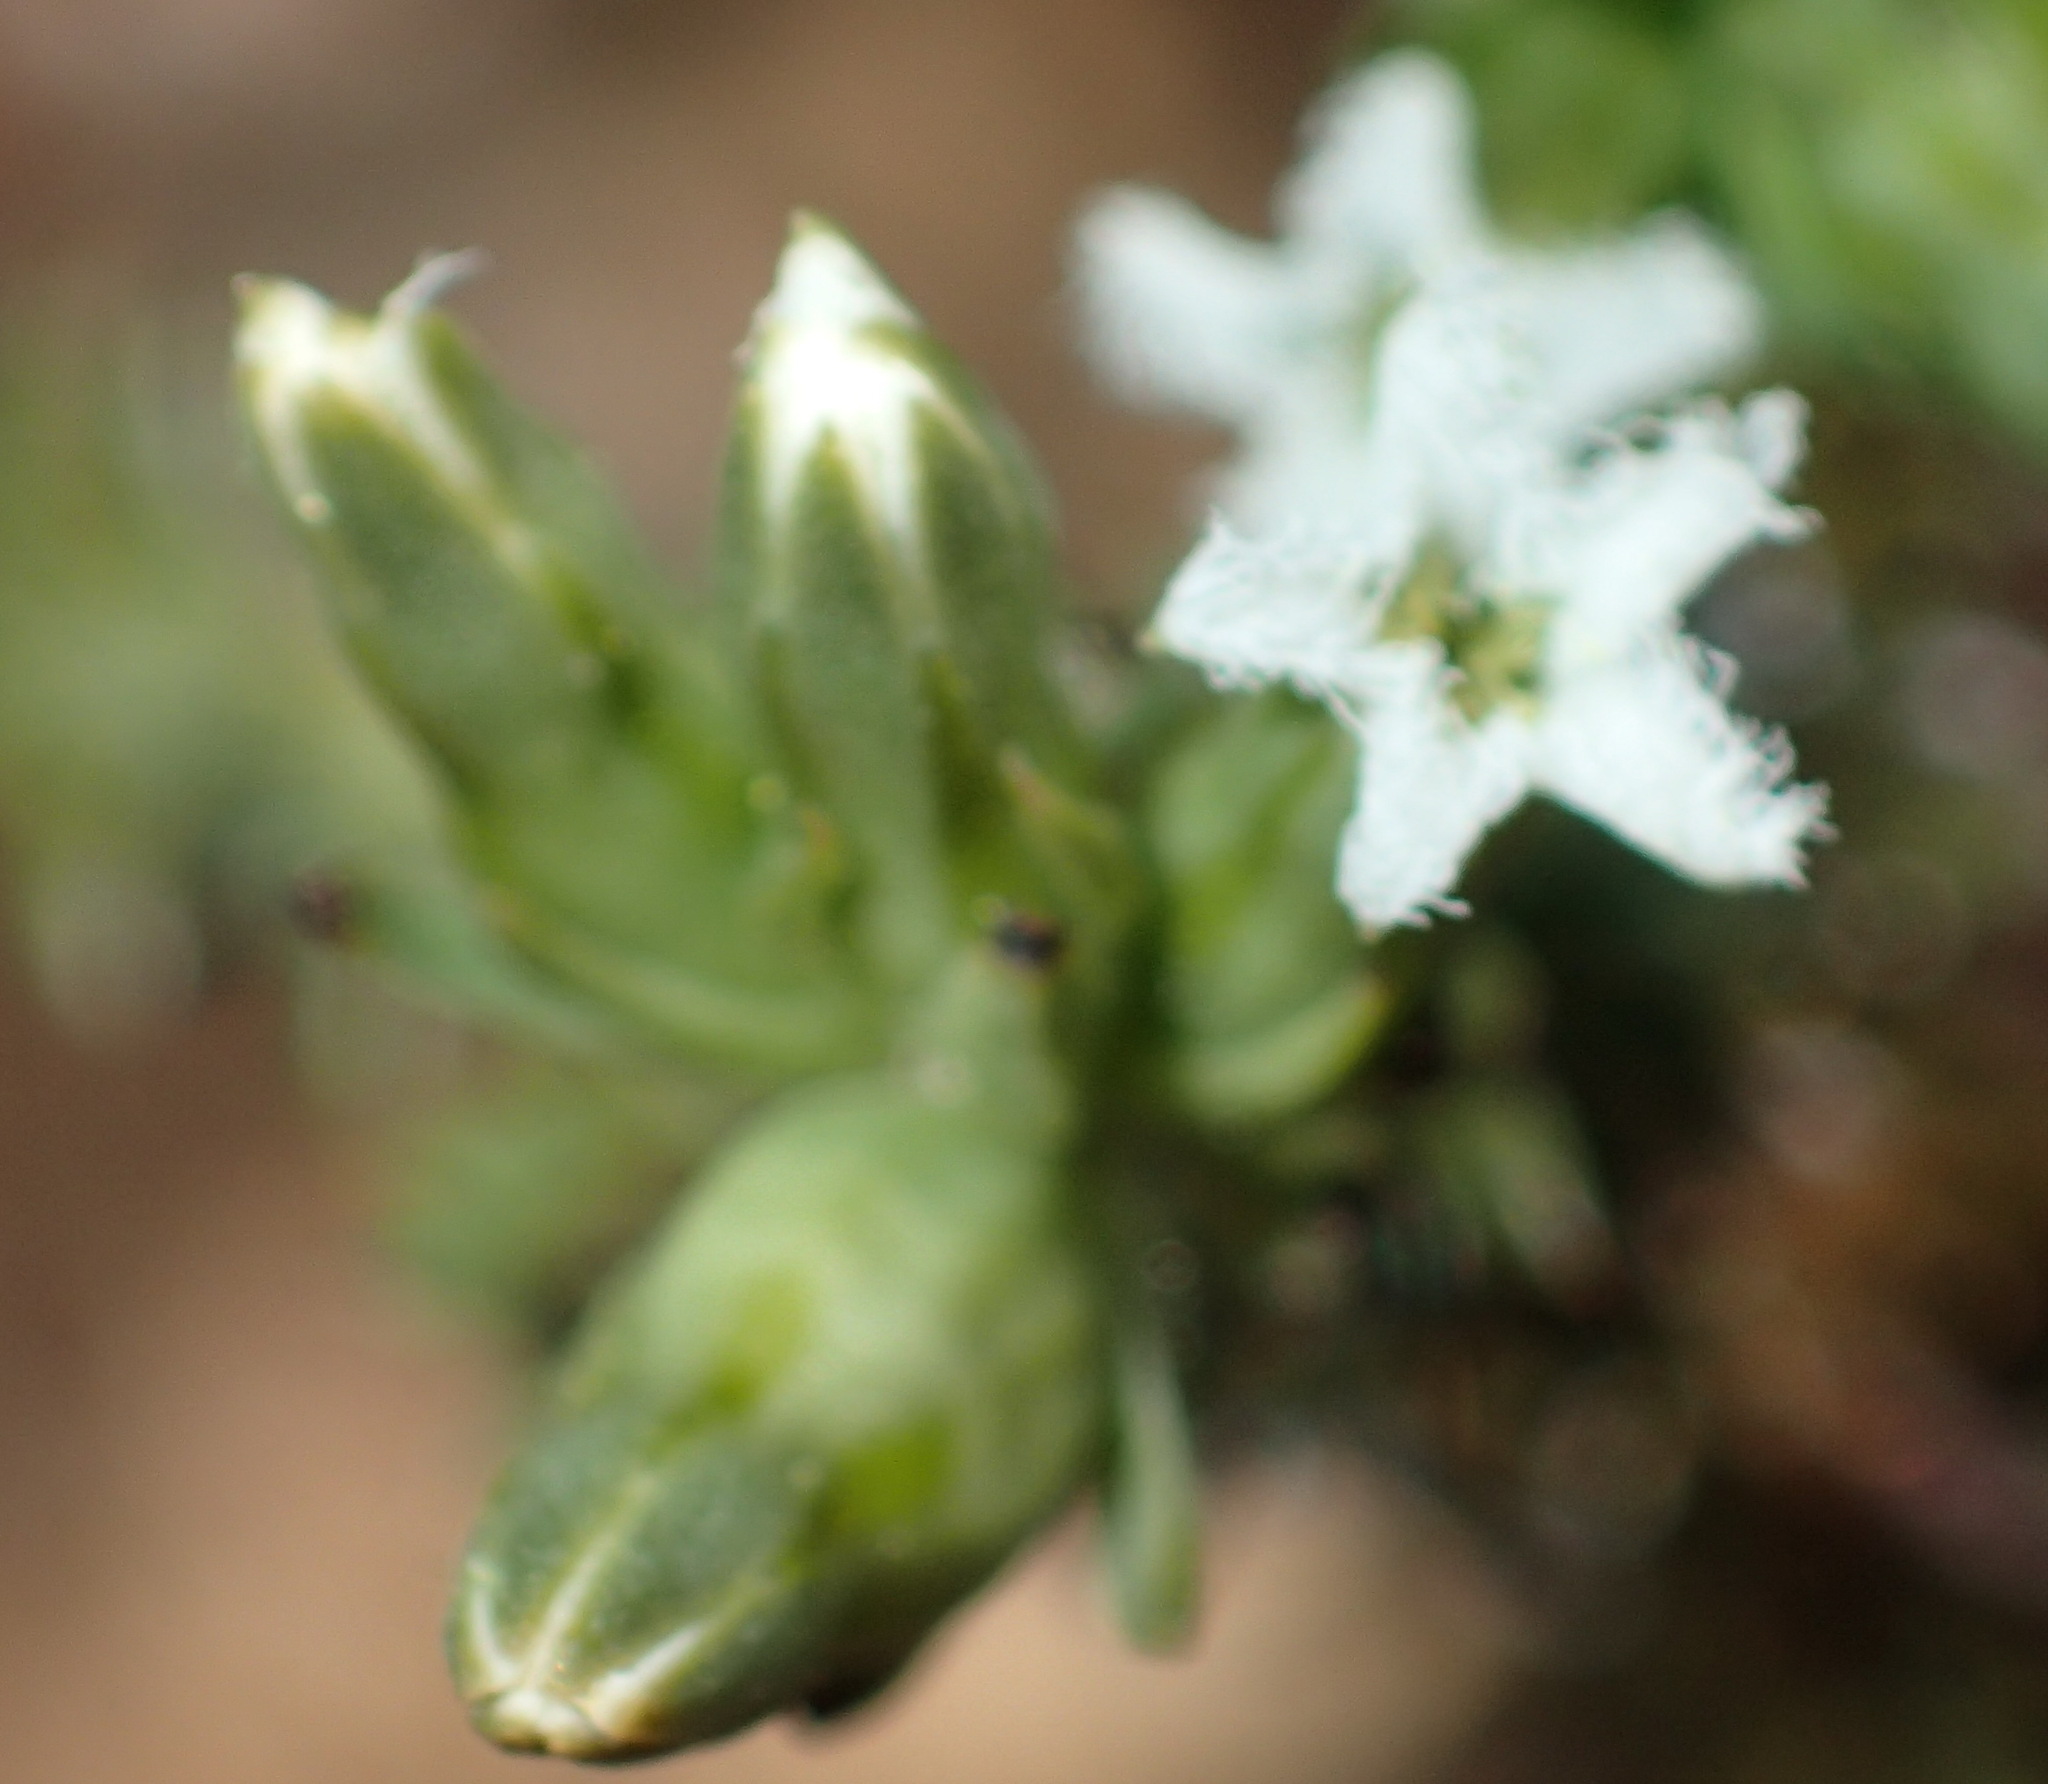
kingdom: Plantae
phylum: Tracheophyta
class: Magnoliopsida
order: Santalales
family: Thesiaceae
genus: Thesium
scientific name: Thesium sonderianum
